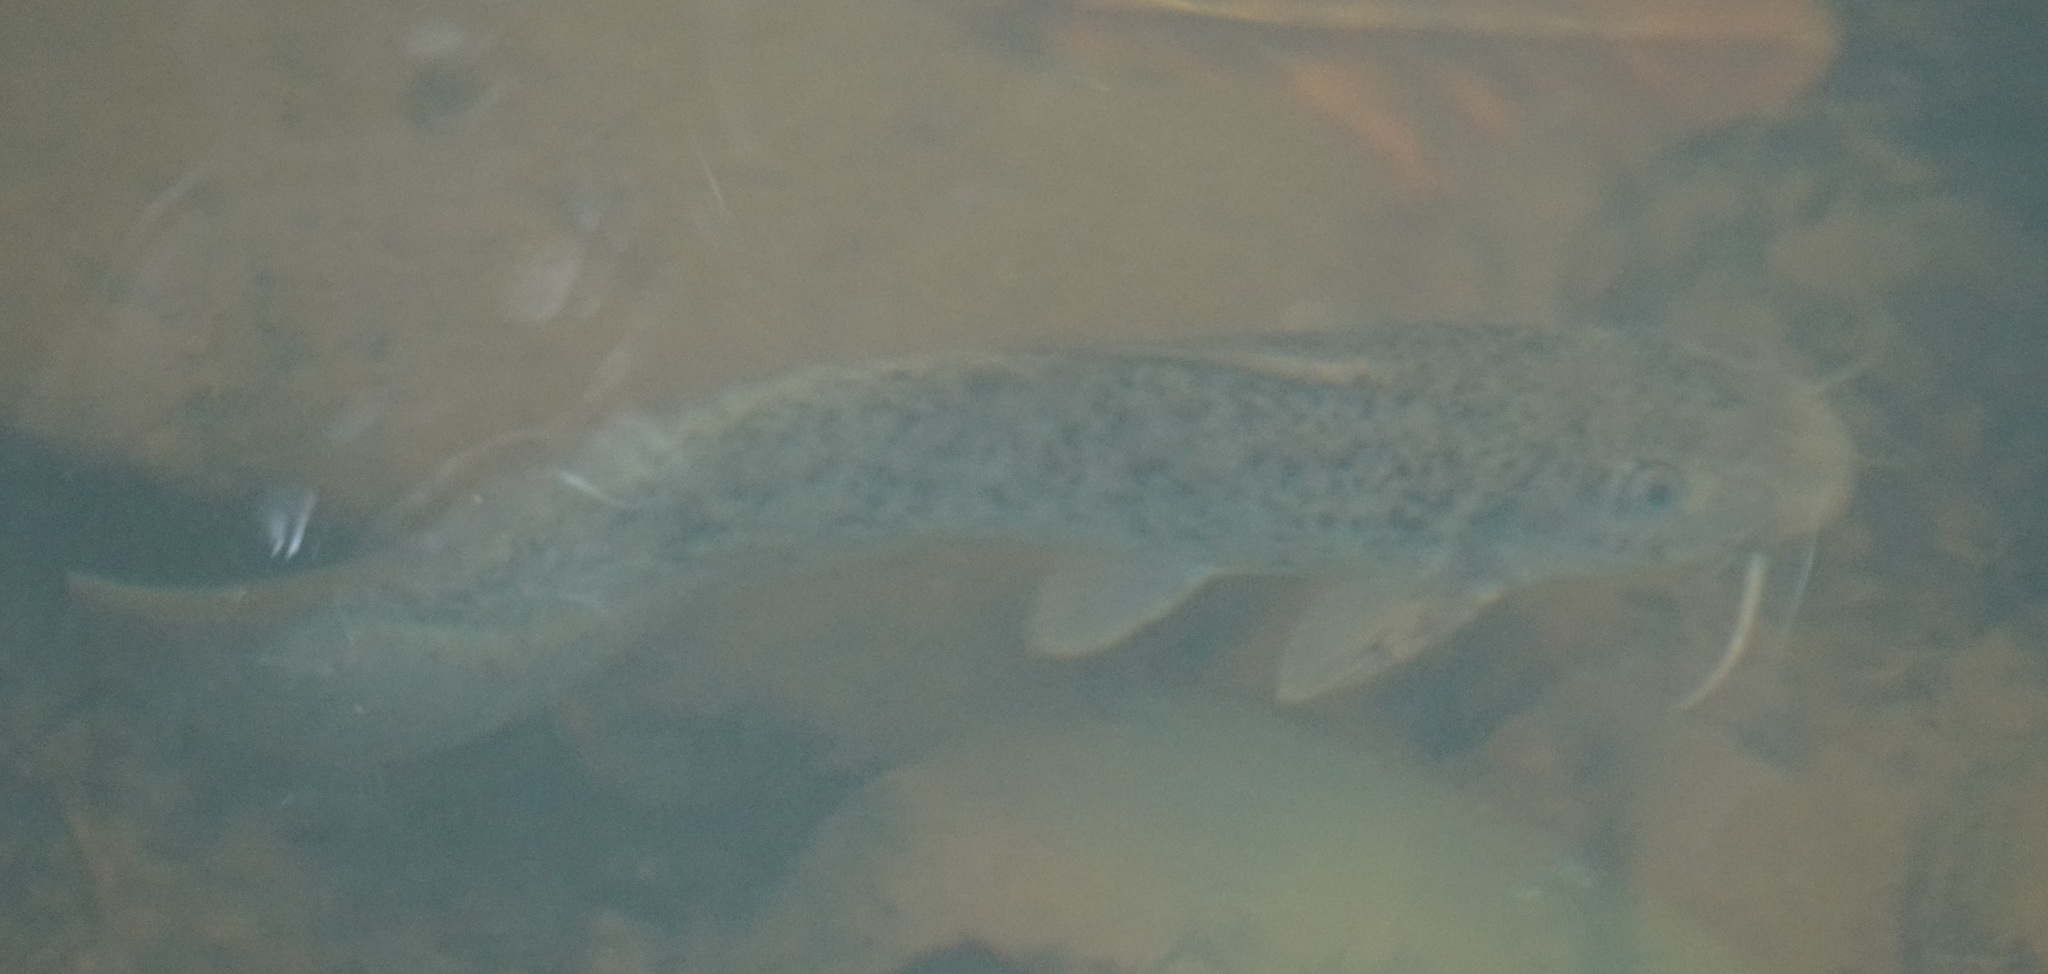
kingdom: Animalia
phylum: Chordata
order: Siluriformes
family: Plotosidae
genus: Tandanus
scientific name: Tandanus tropicanus
